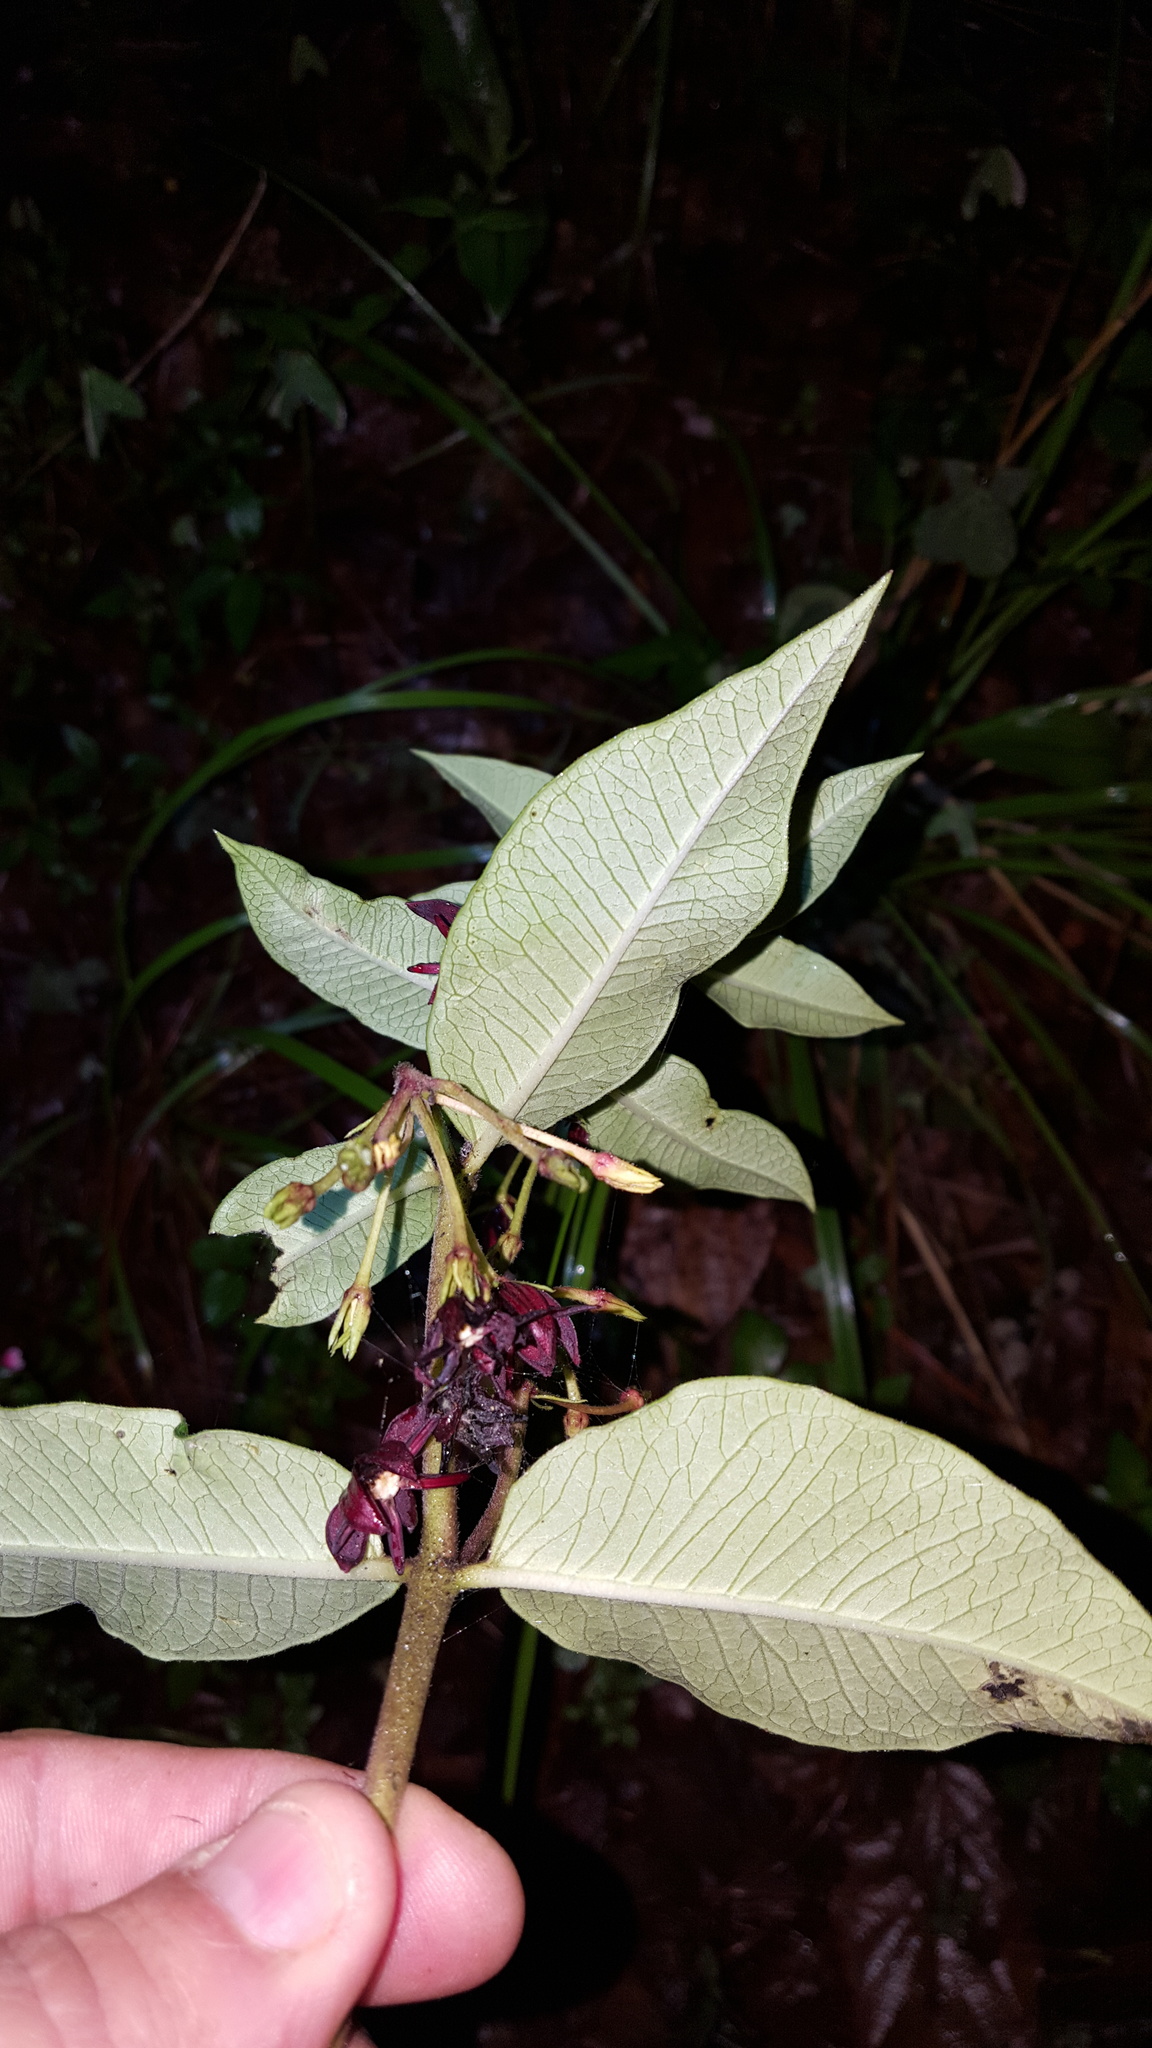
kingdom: Plantae
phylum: Tracheophyta
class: Magnoliopsida
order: Gentianales
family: Apocynaceae
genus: Asclepias
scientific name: Asclepias melantha
